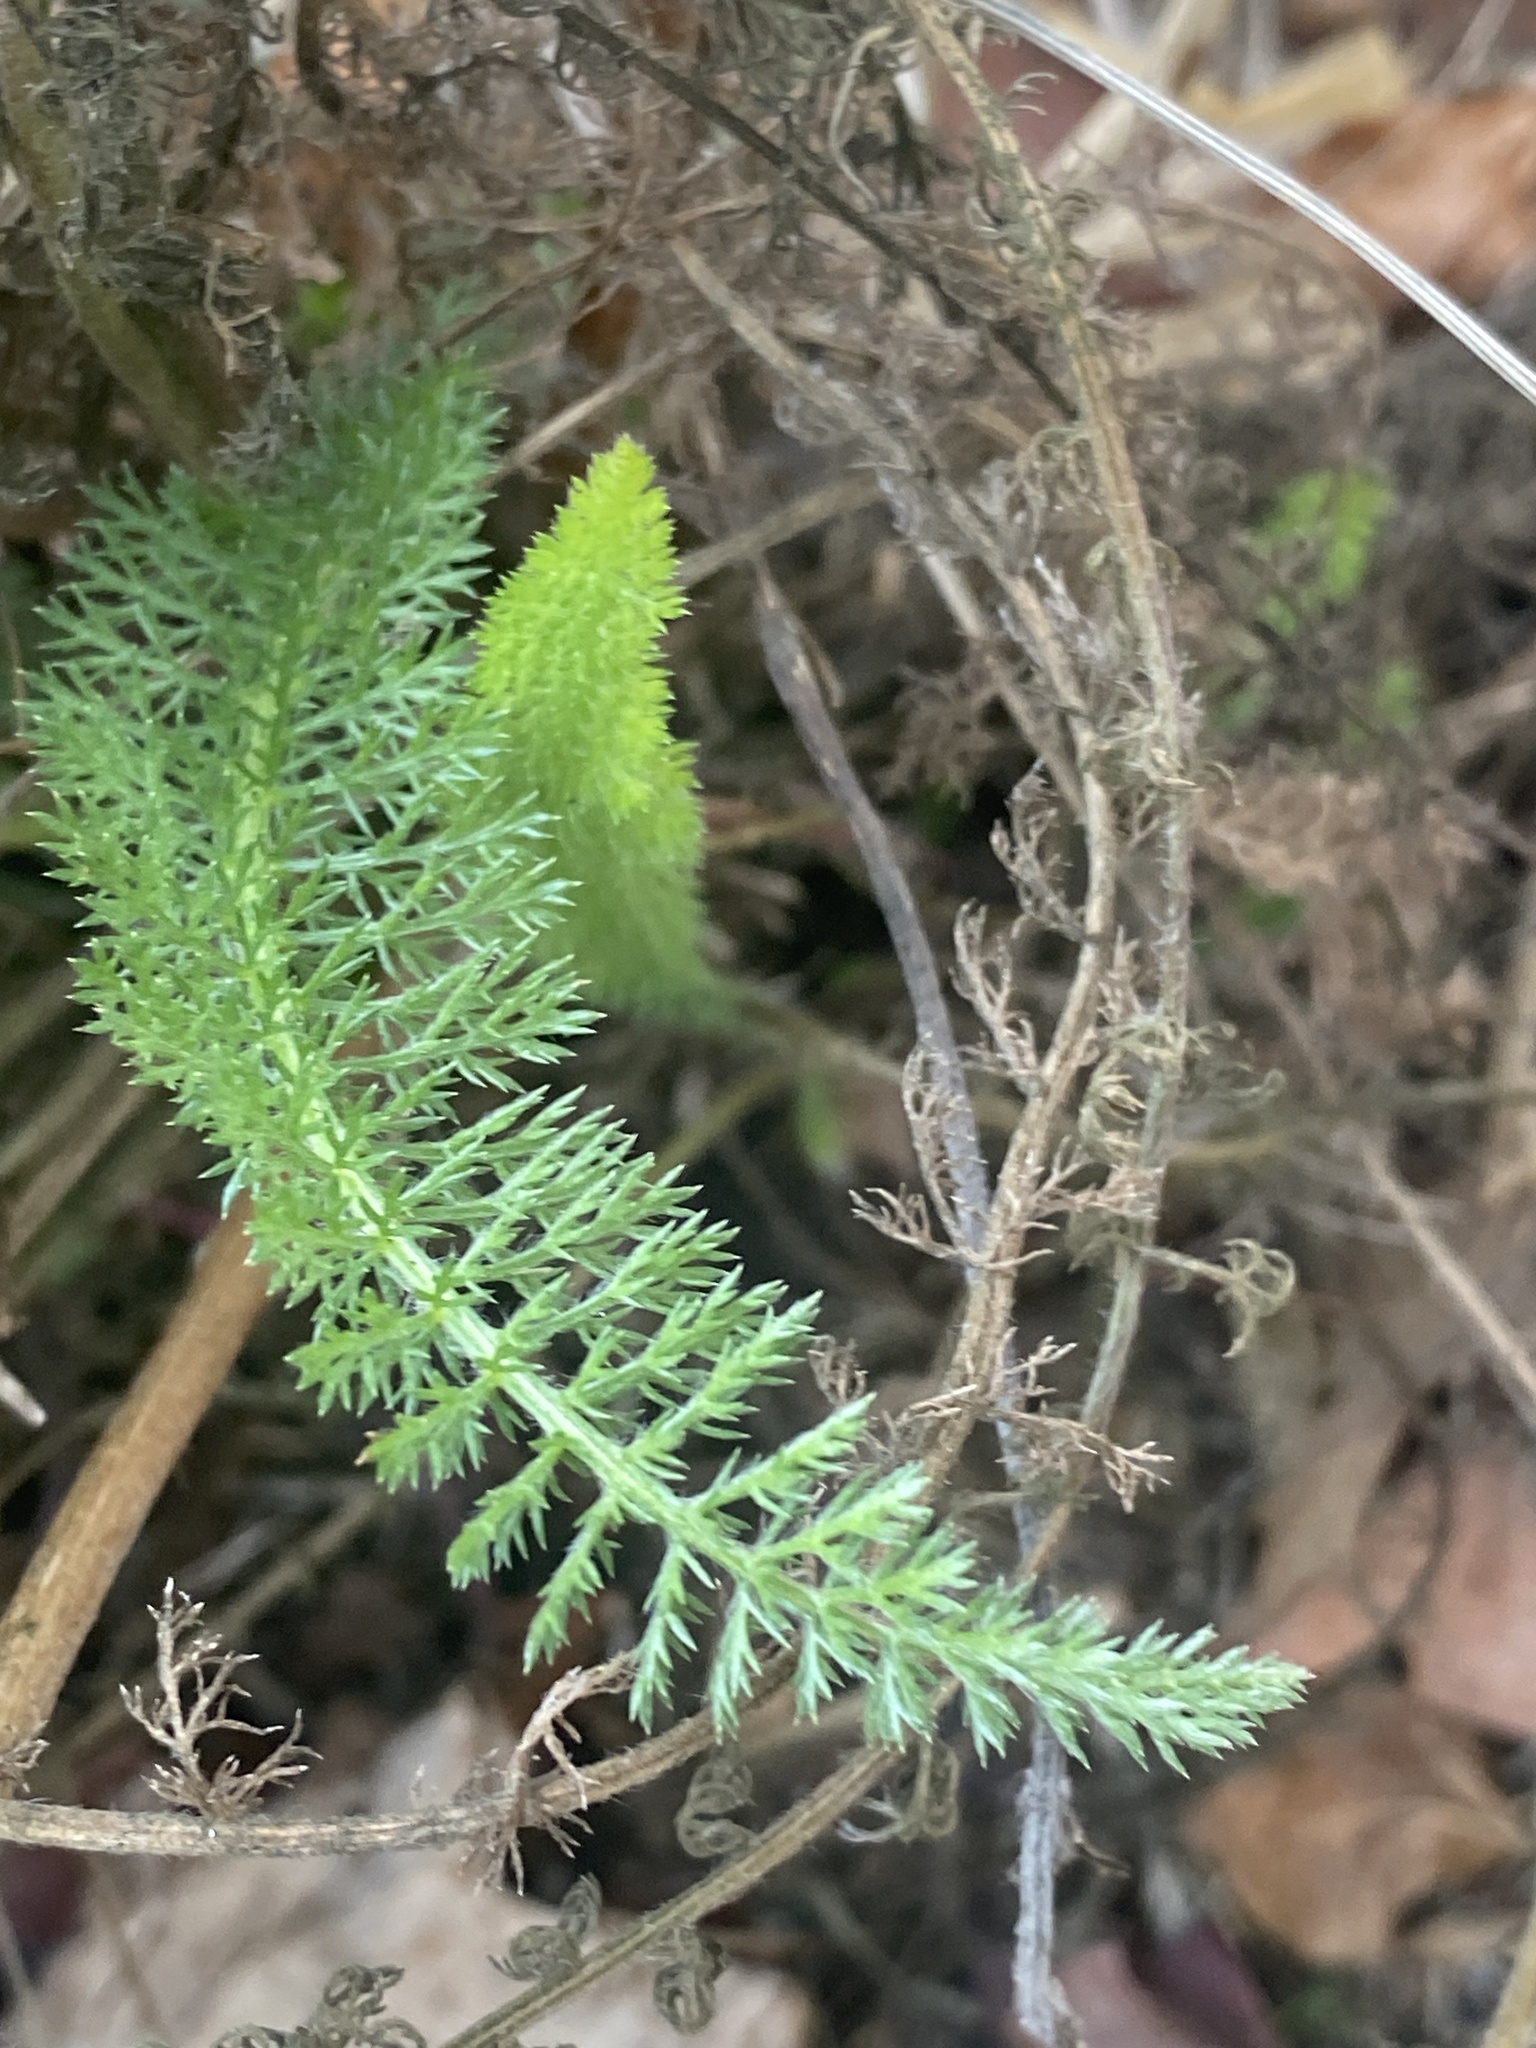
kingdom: Plantae
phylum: Tracheophyta
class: Magnoliopsida
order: Asterales
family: Asteraceae
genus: Achillea
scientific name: Achillea millefolium
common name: Yarrow
